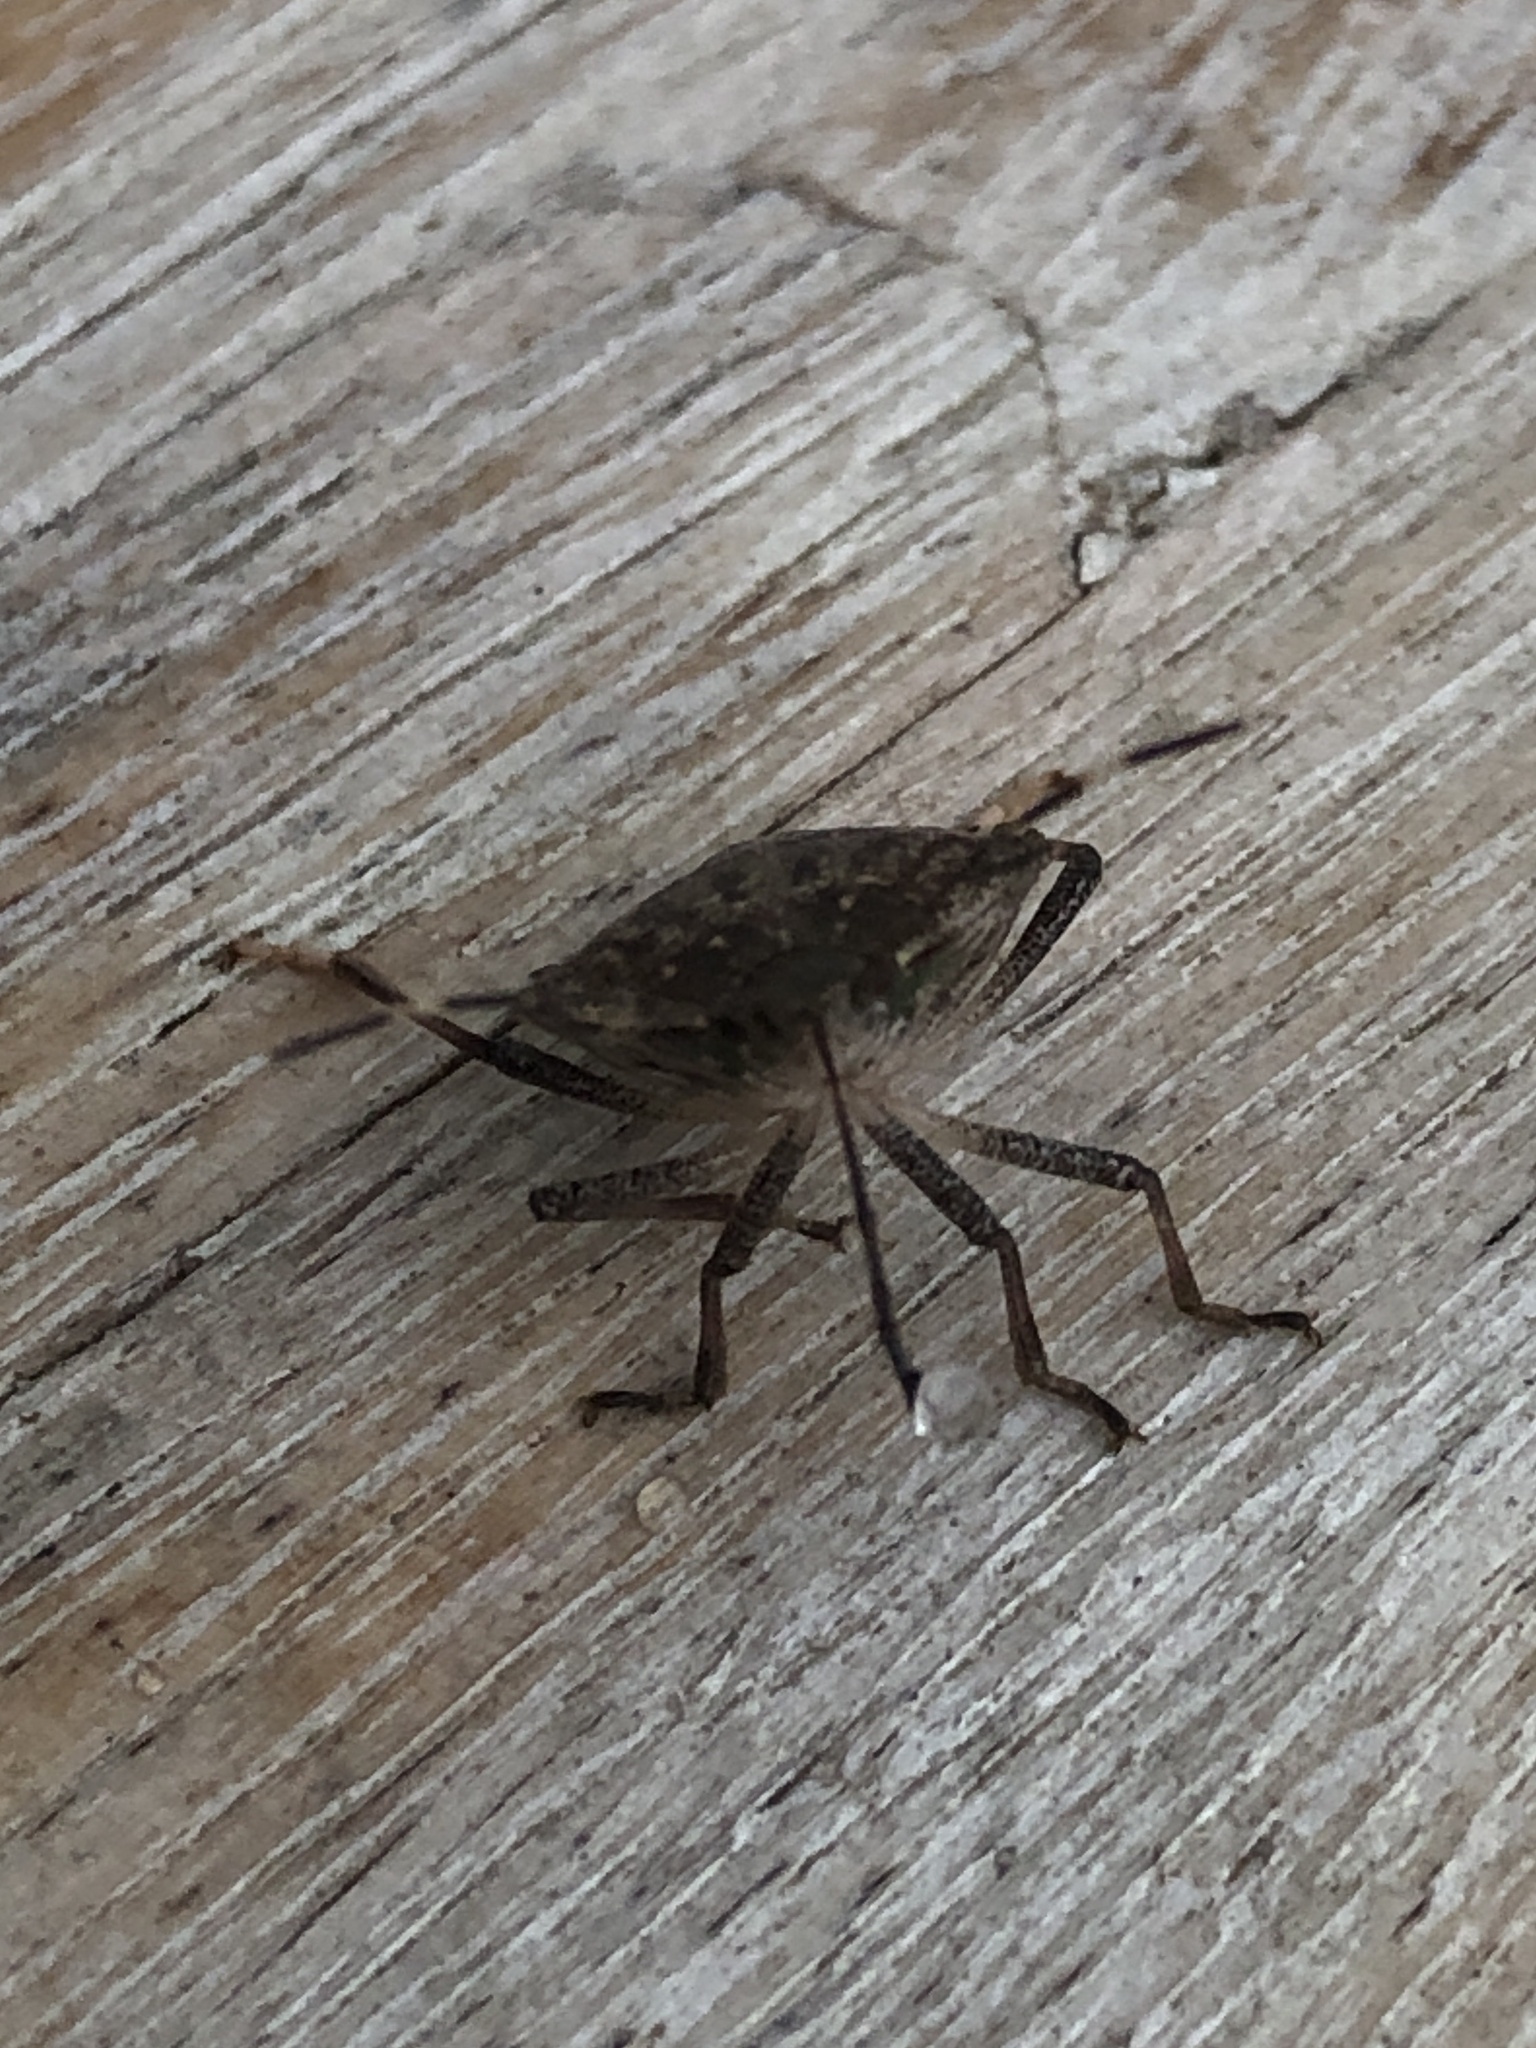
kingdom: Animalia
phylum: Arthropoda
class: Insecta
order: Hemiptera
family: Pentatomidae
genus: Halyomorpha
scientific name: Halyomorpha halys
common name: Brown marmorated stink bug
